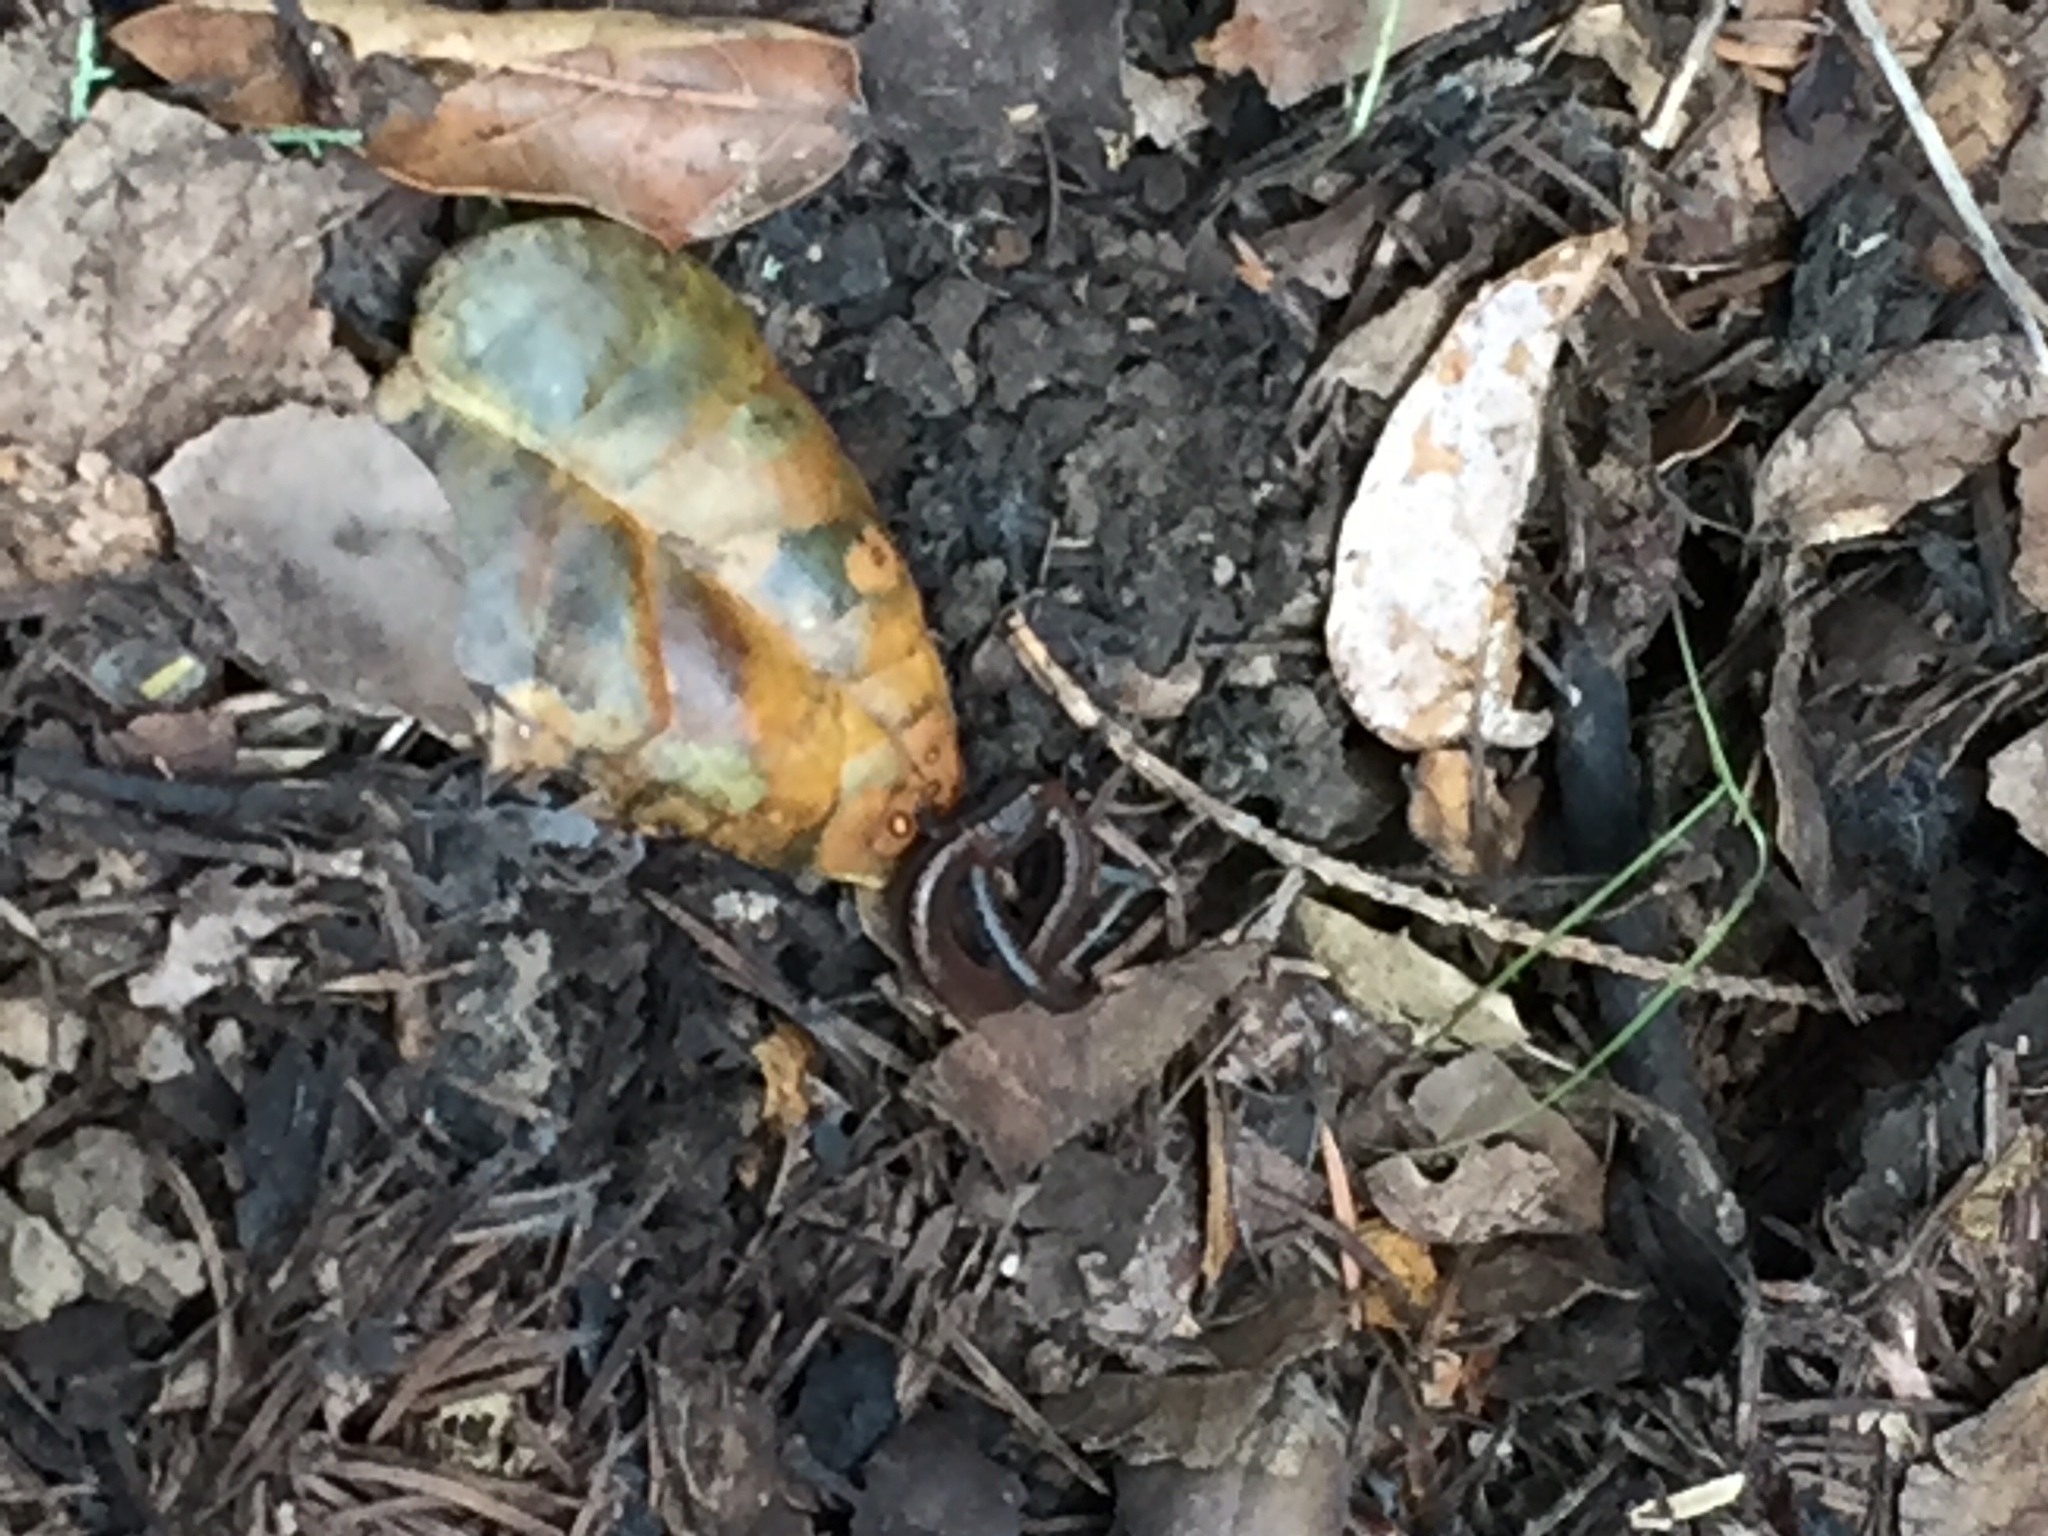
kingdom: Animalia
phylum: Chordata
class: Amphibia
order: Caudata
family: Plethodontidae
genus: Batrachoseps
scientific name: Batrachoseps attenuatus
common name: California slender salamander
